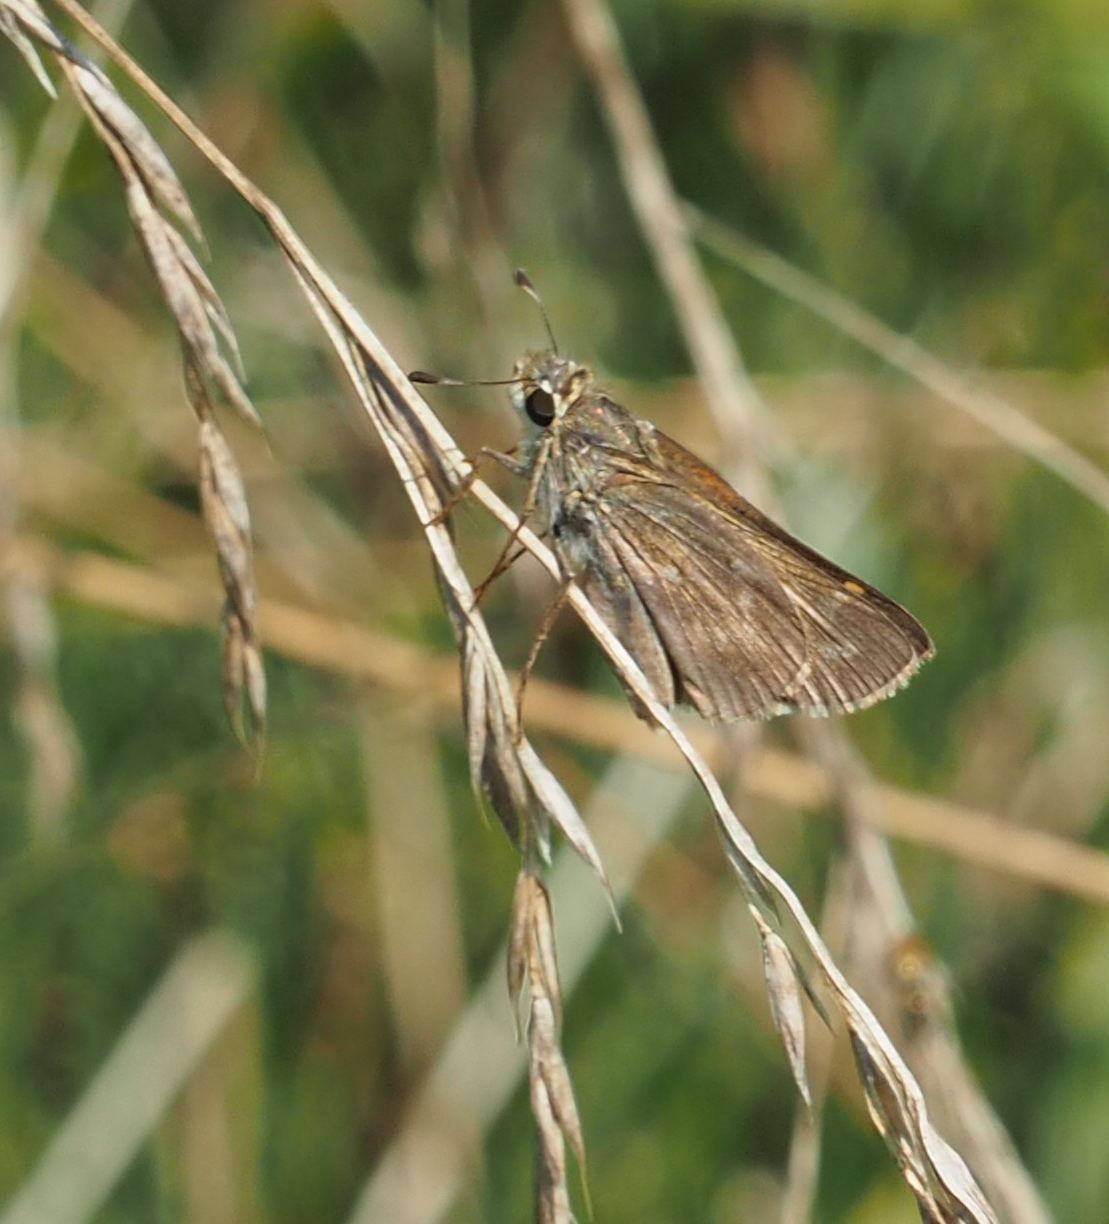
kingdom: Animalia
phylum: Arthropoda
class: Insecta
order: Lepidoptera
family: Hesperiidae
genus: Atalopedes
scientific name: Atalopedes
